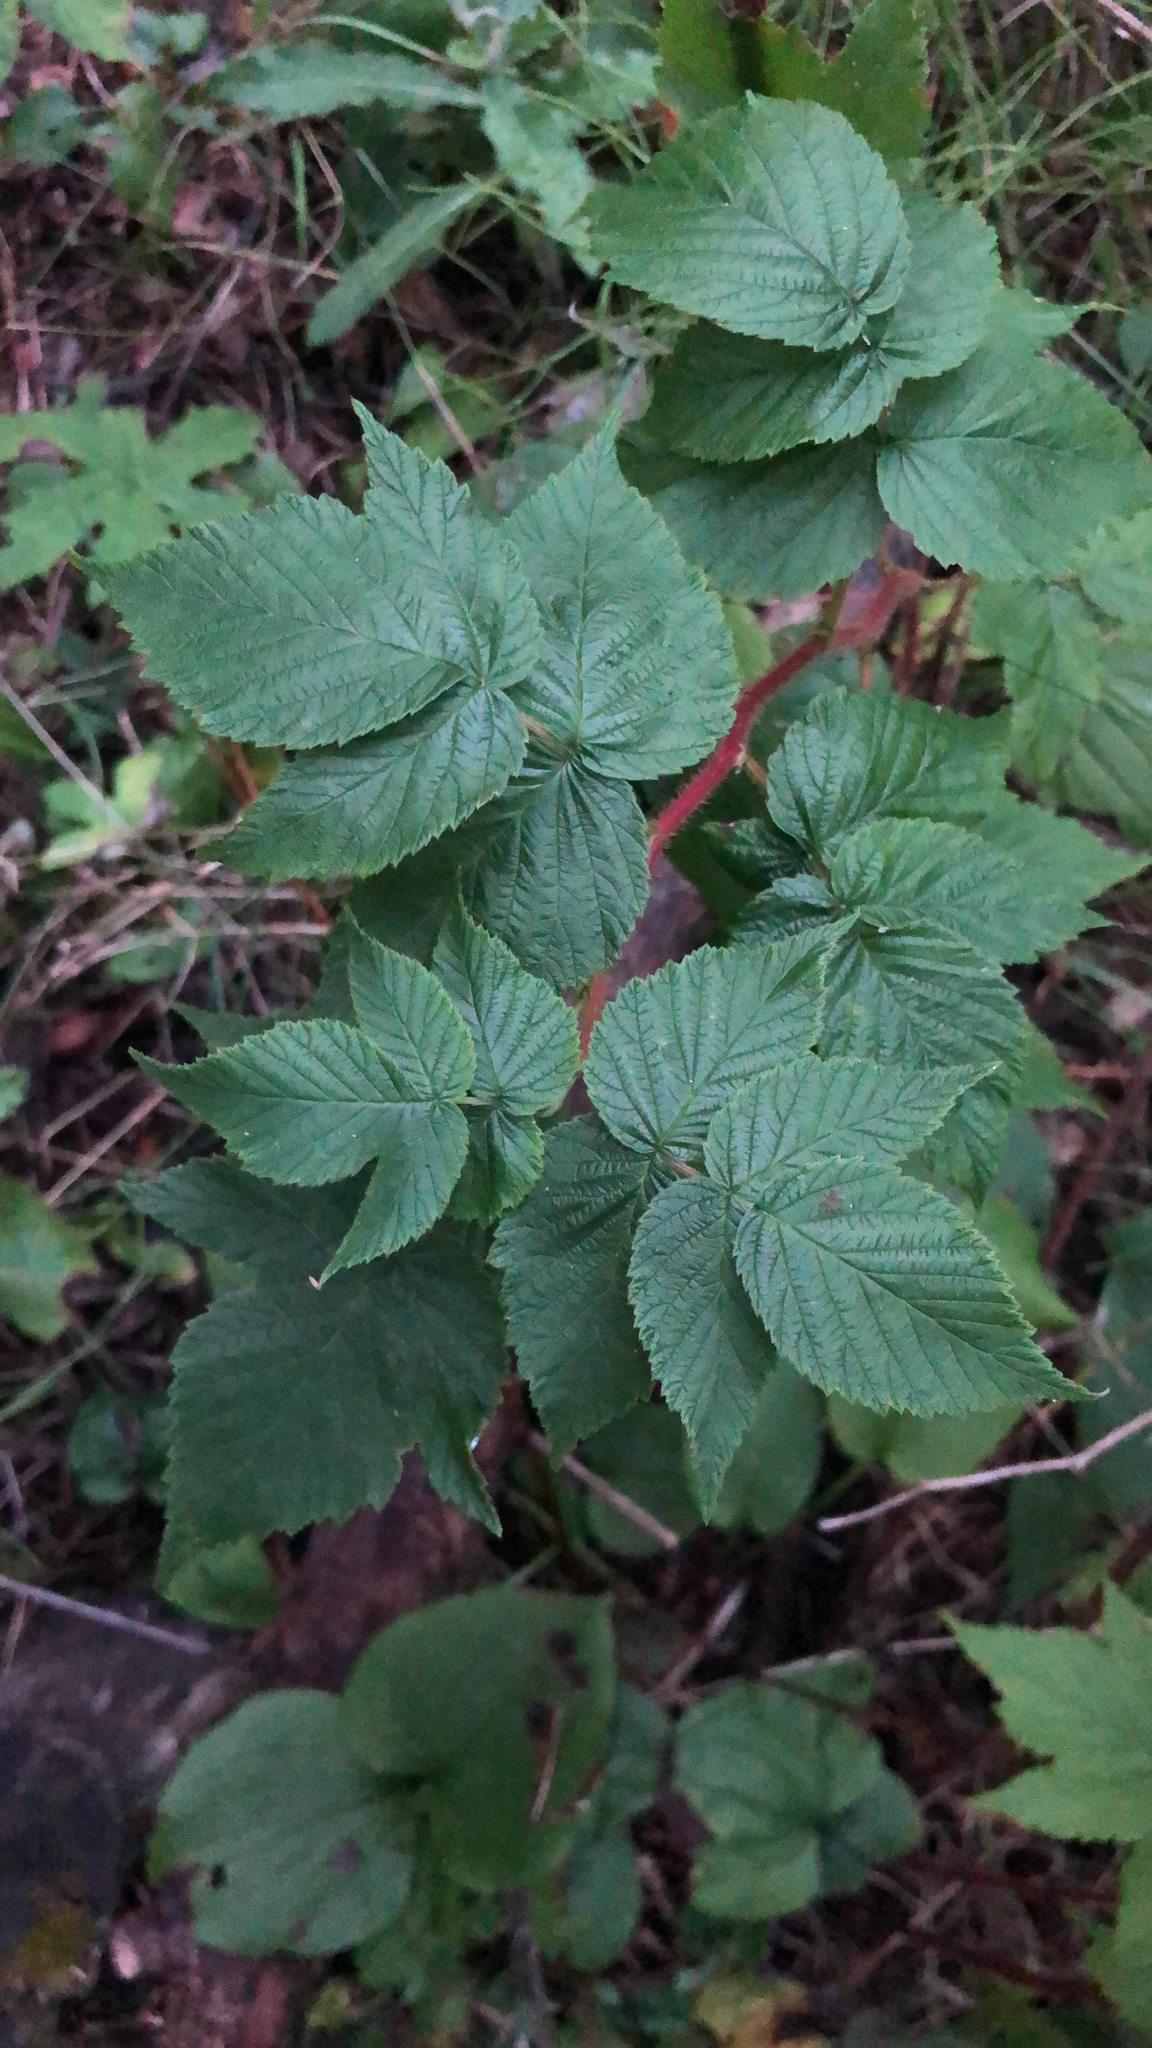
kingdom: Plantae
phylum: Tracheophyta
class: Magnoliopsida
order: Rosales
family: Rosaceae
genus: Rubus
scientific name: Rubus idaeus
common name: Raspberry
